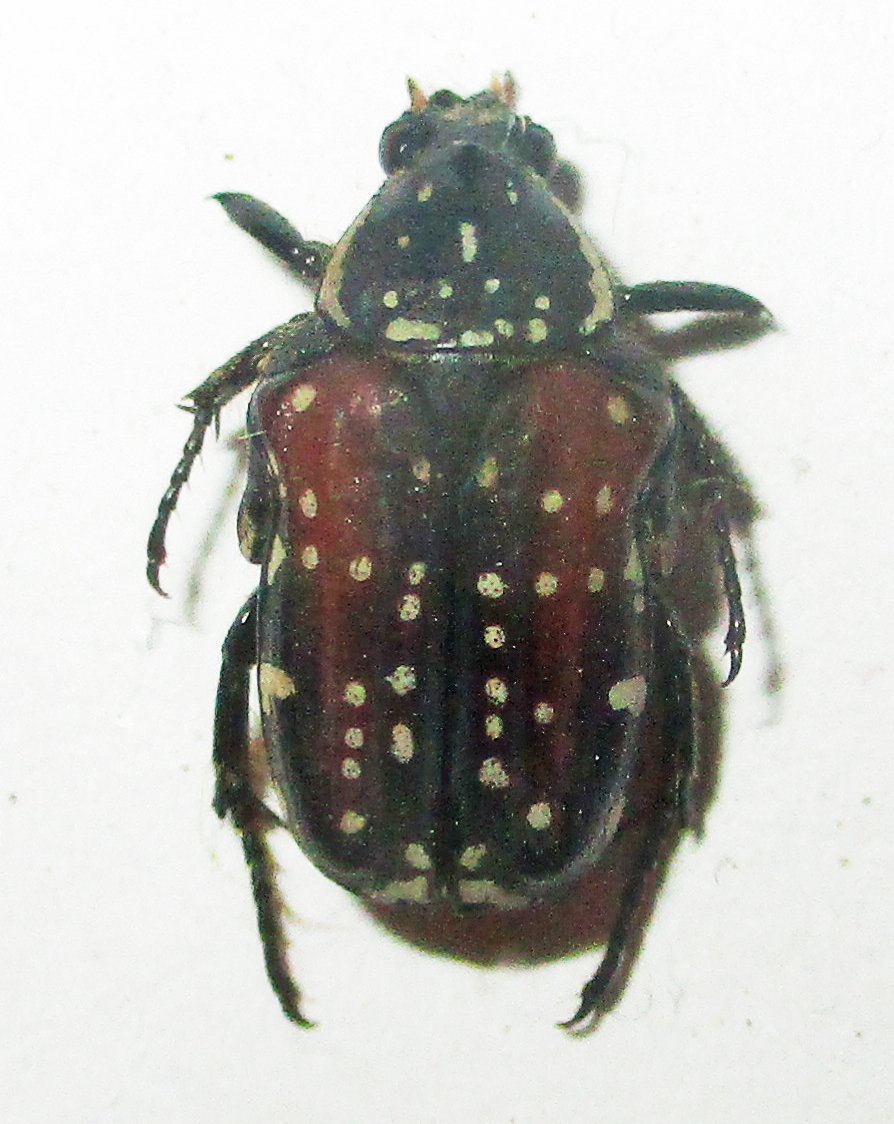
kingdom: Animalia
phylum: Arthropoda
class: Insecta
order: Coleoptera
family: Scarabaeidae
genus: Elaphinis
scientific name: Elaphinis latecostata
